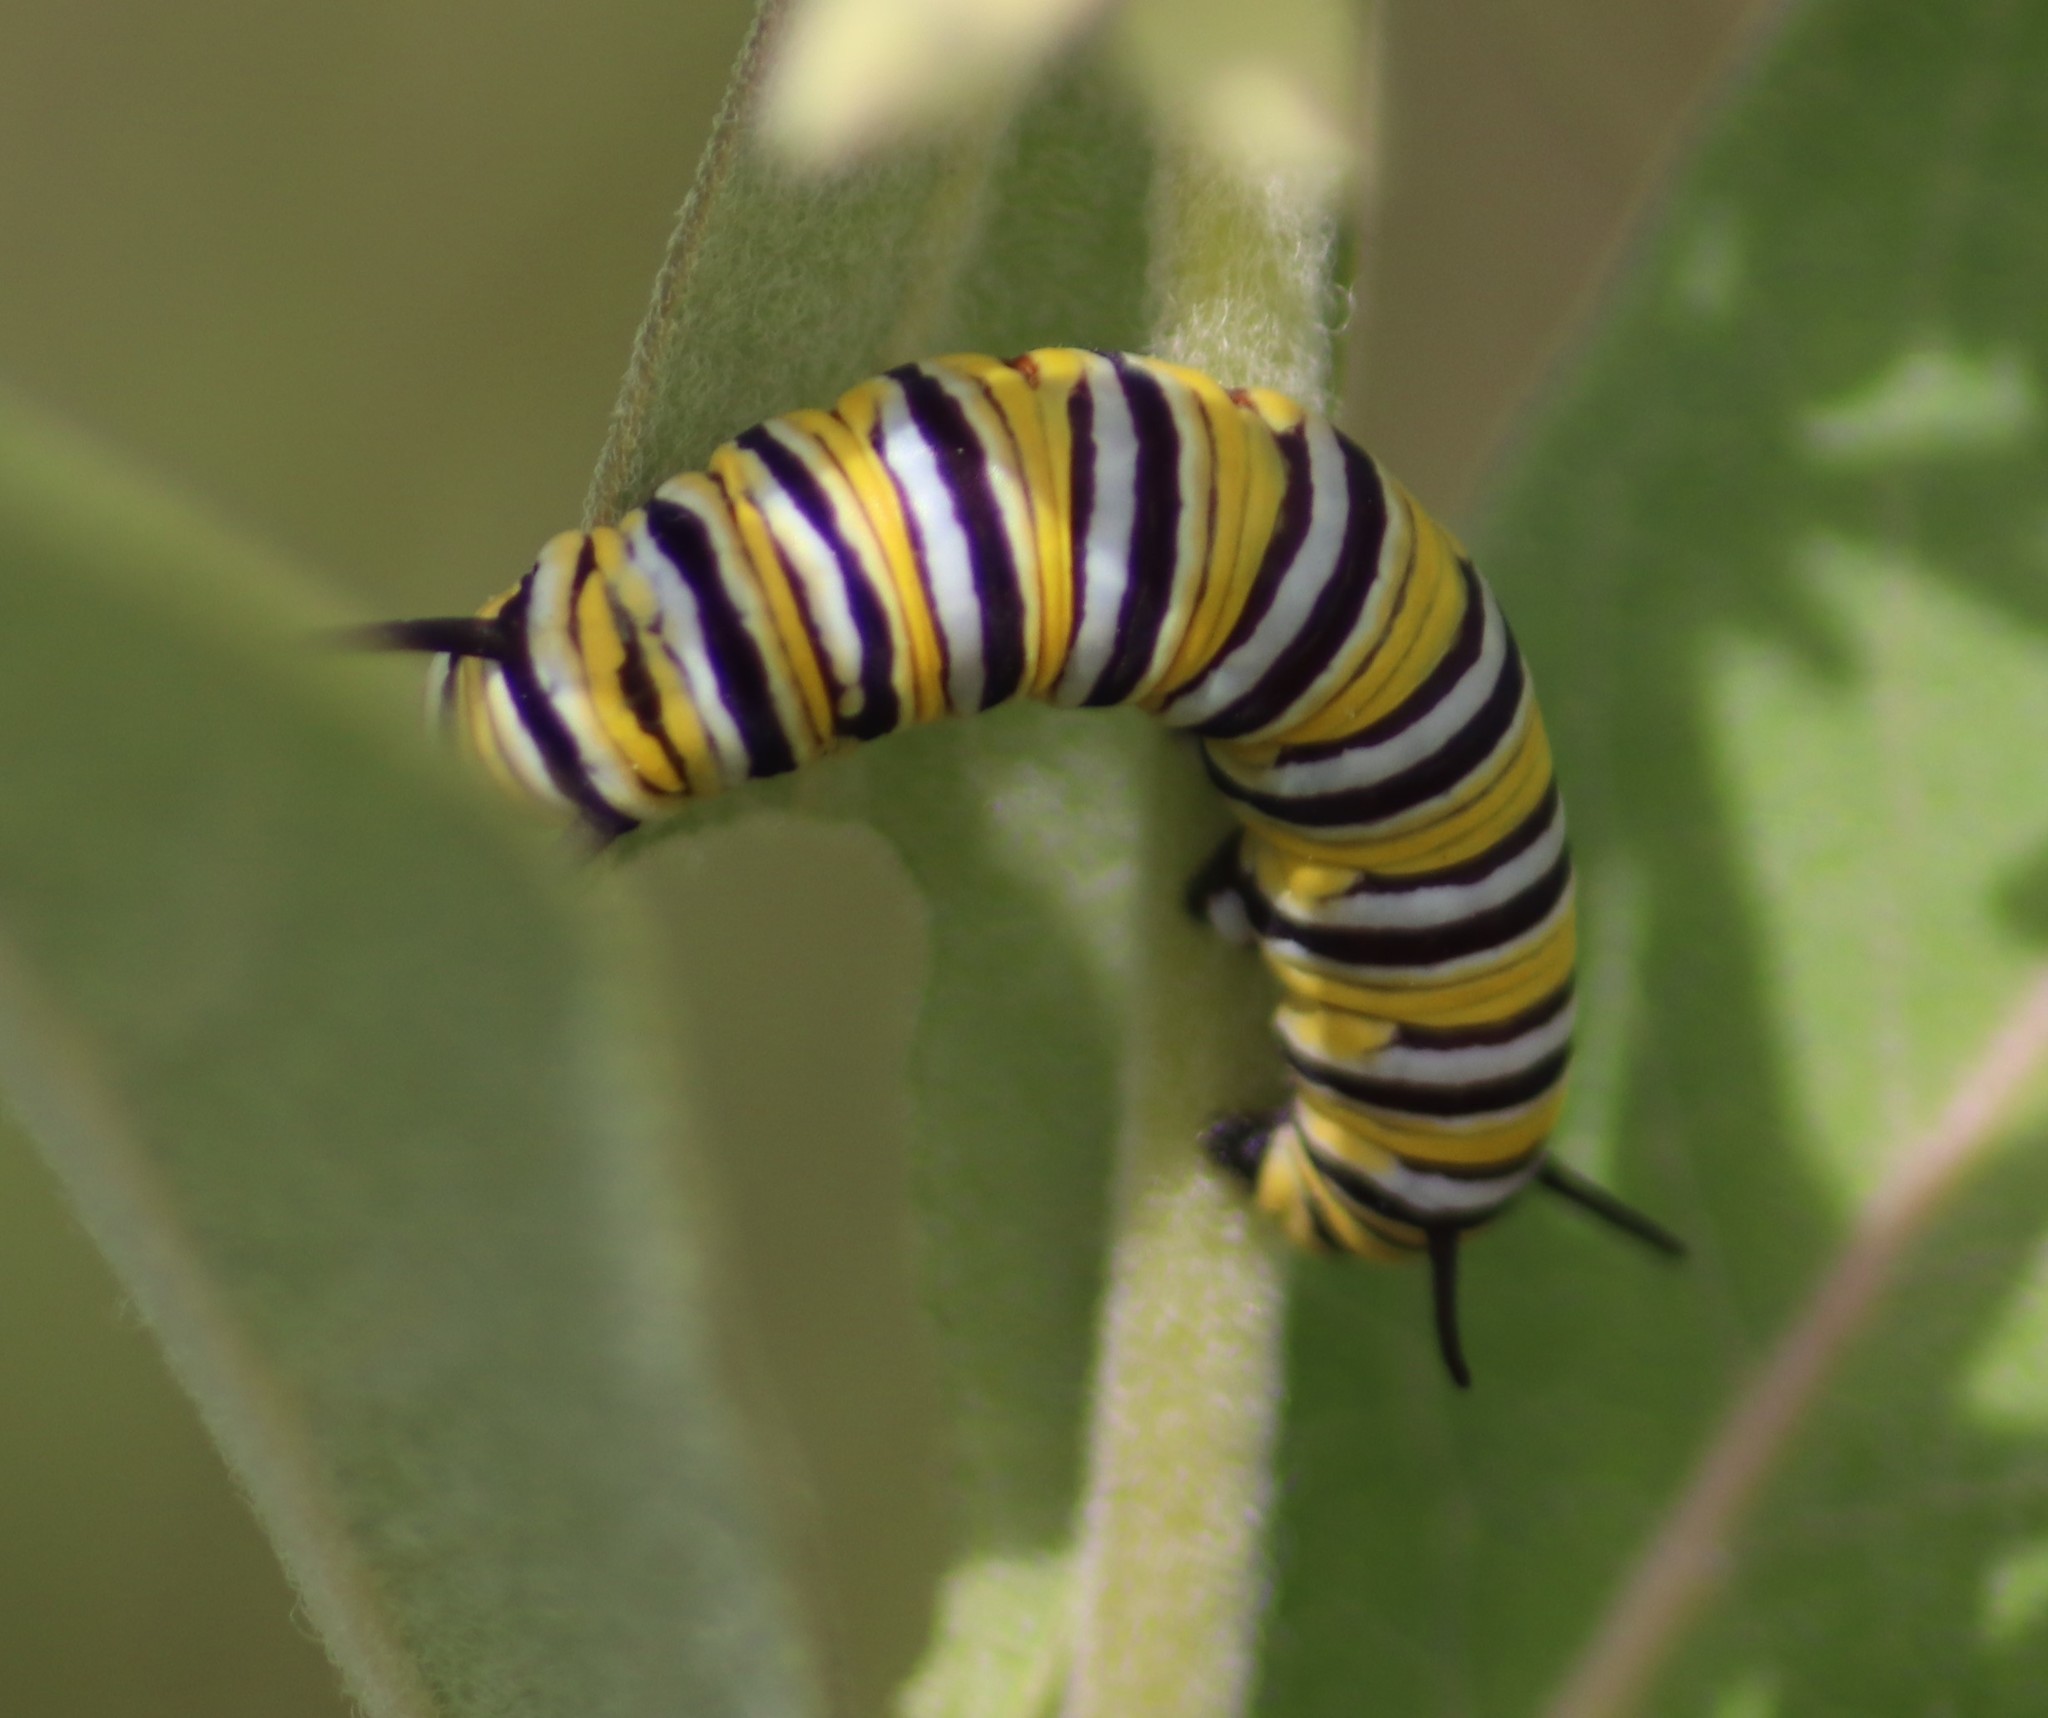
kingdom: Animalia
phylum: Arthropoda
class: Insecta
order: Lepidoptera
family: Nymphalidae
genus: Danaus
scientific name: Danaus plexippus
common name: Monarch
